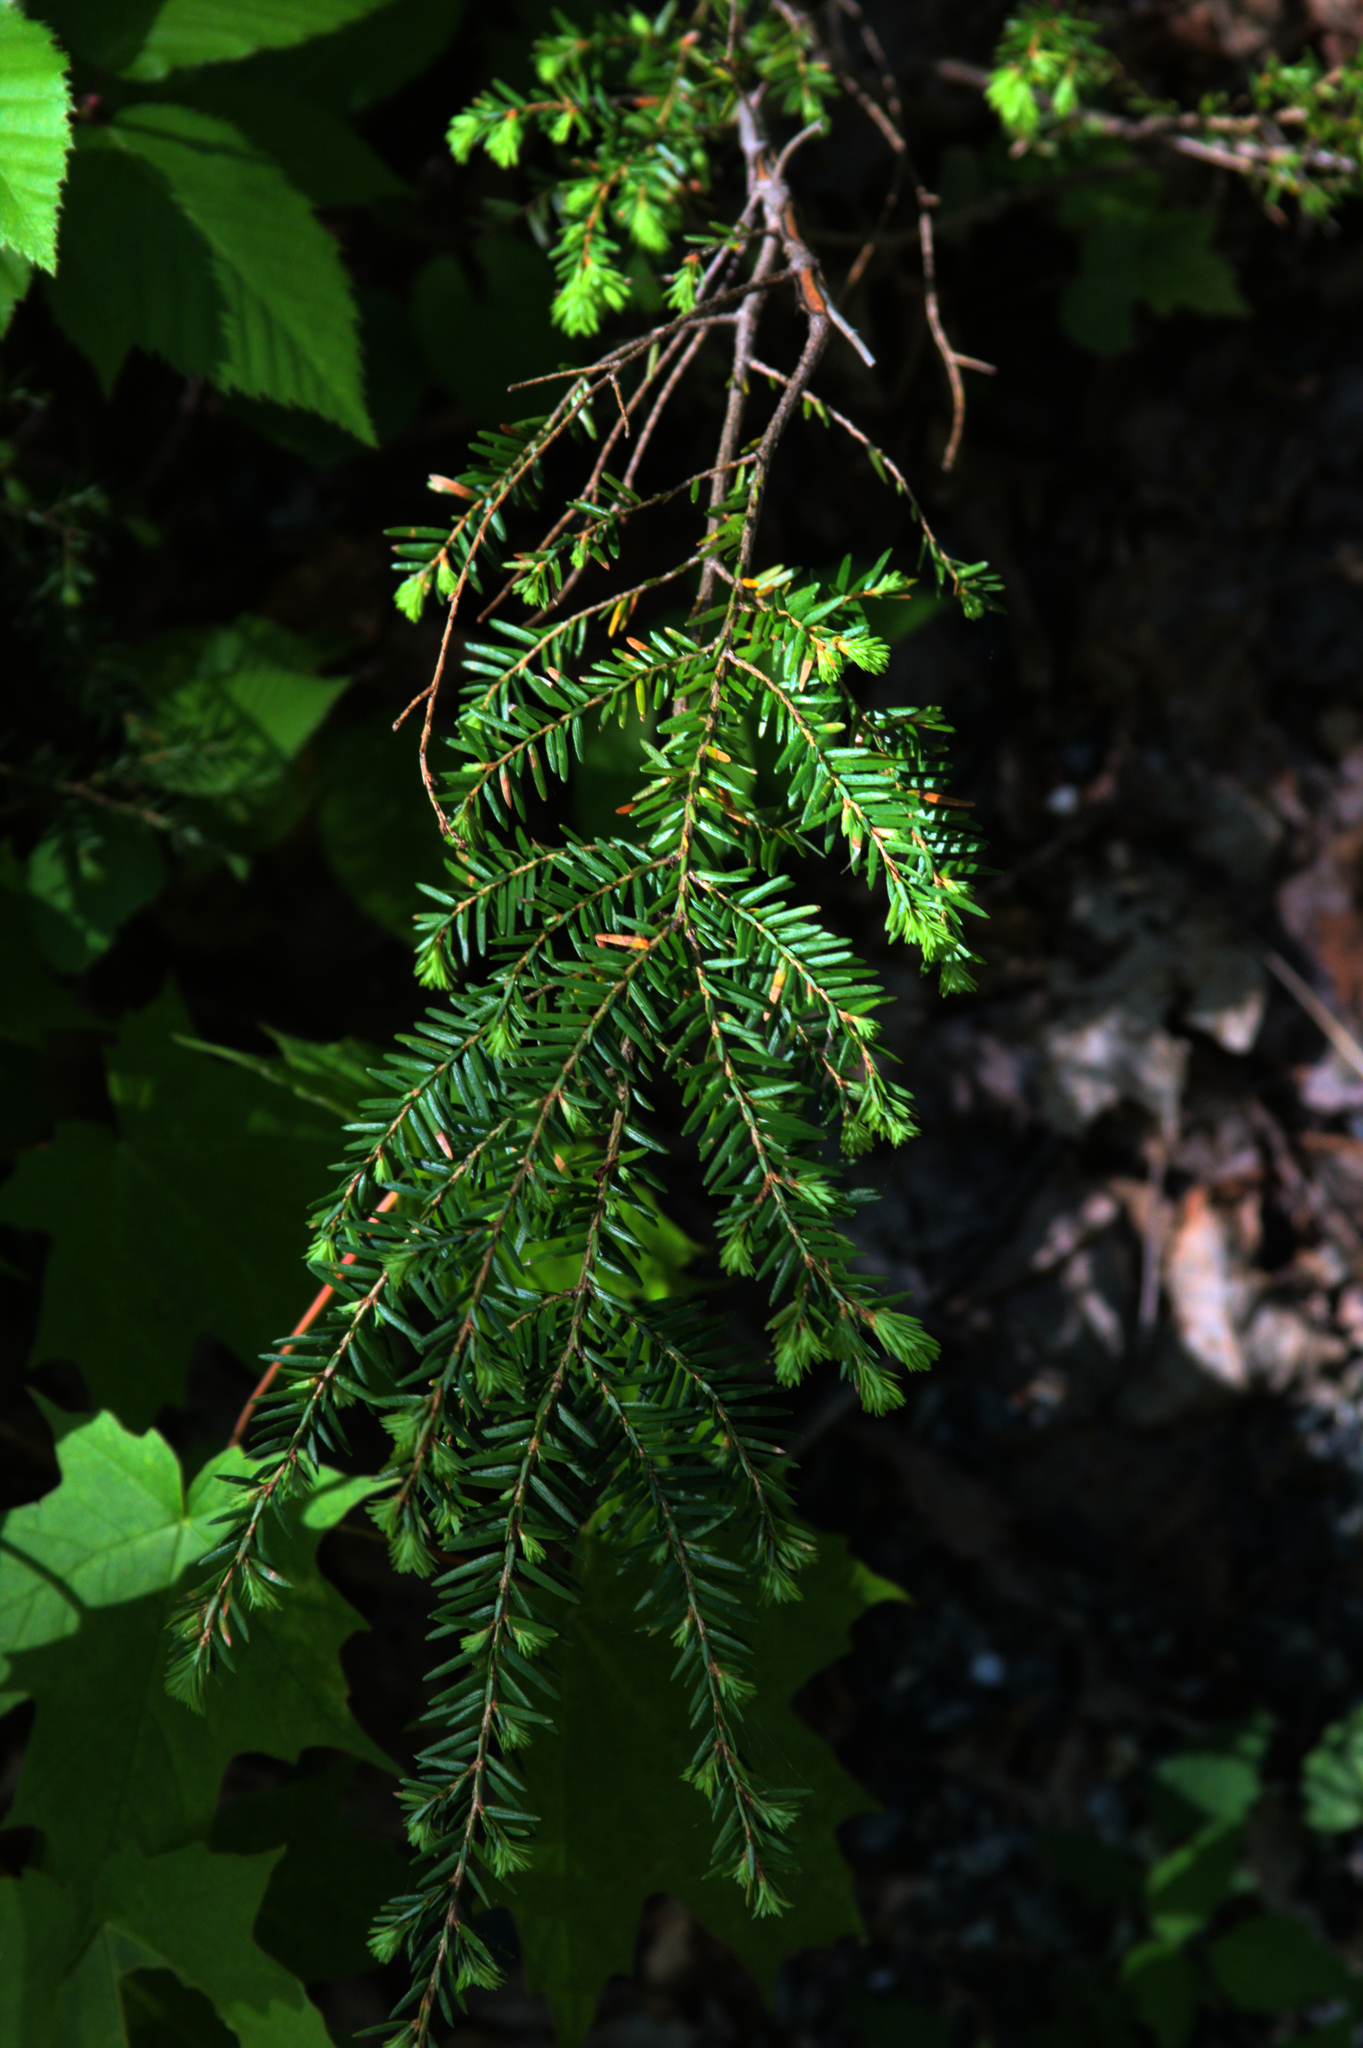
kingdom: Plantae
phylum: Tracheophyta
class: Pinopsida
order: Pinales
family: Pinaceae
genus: Tsuga
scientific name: Tsuga canadensis
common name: Eastern hemlock
